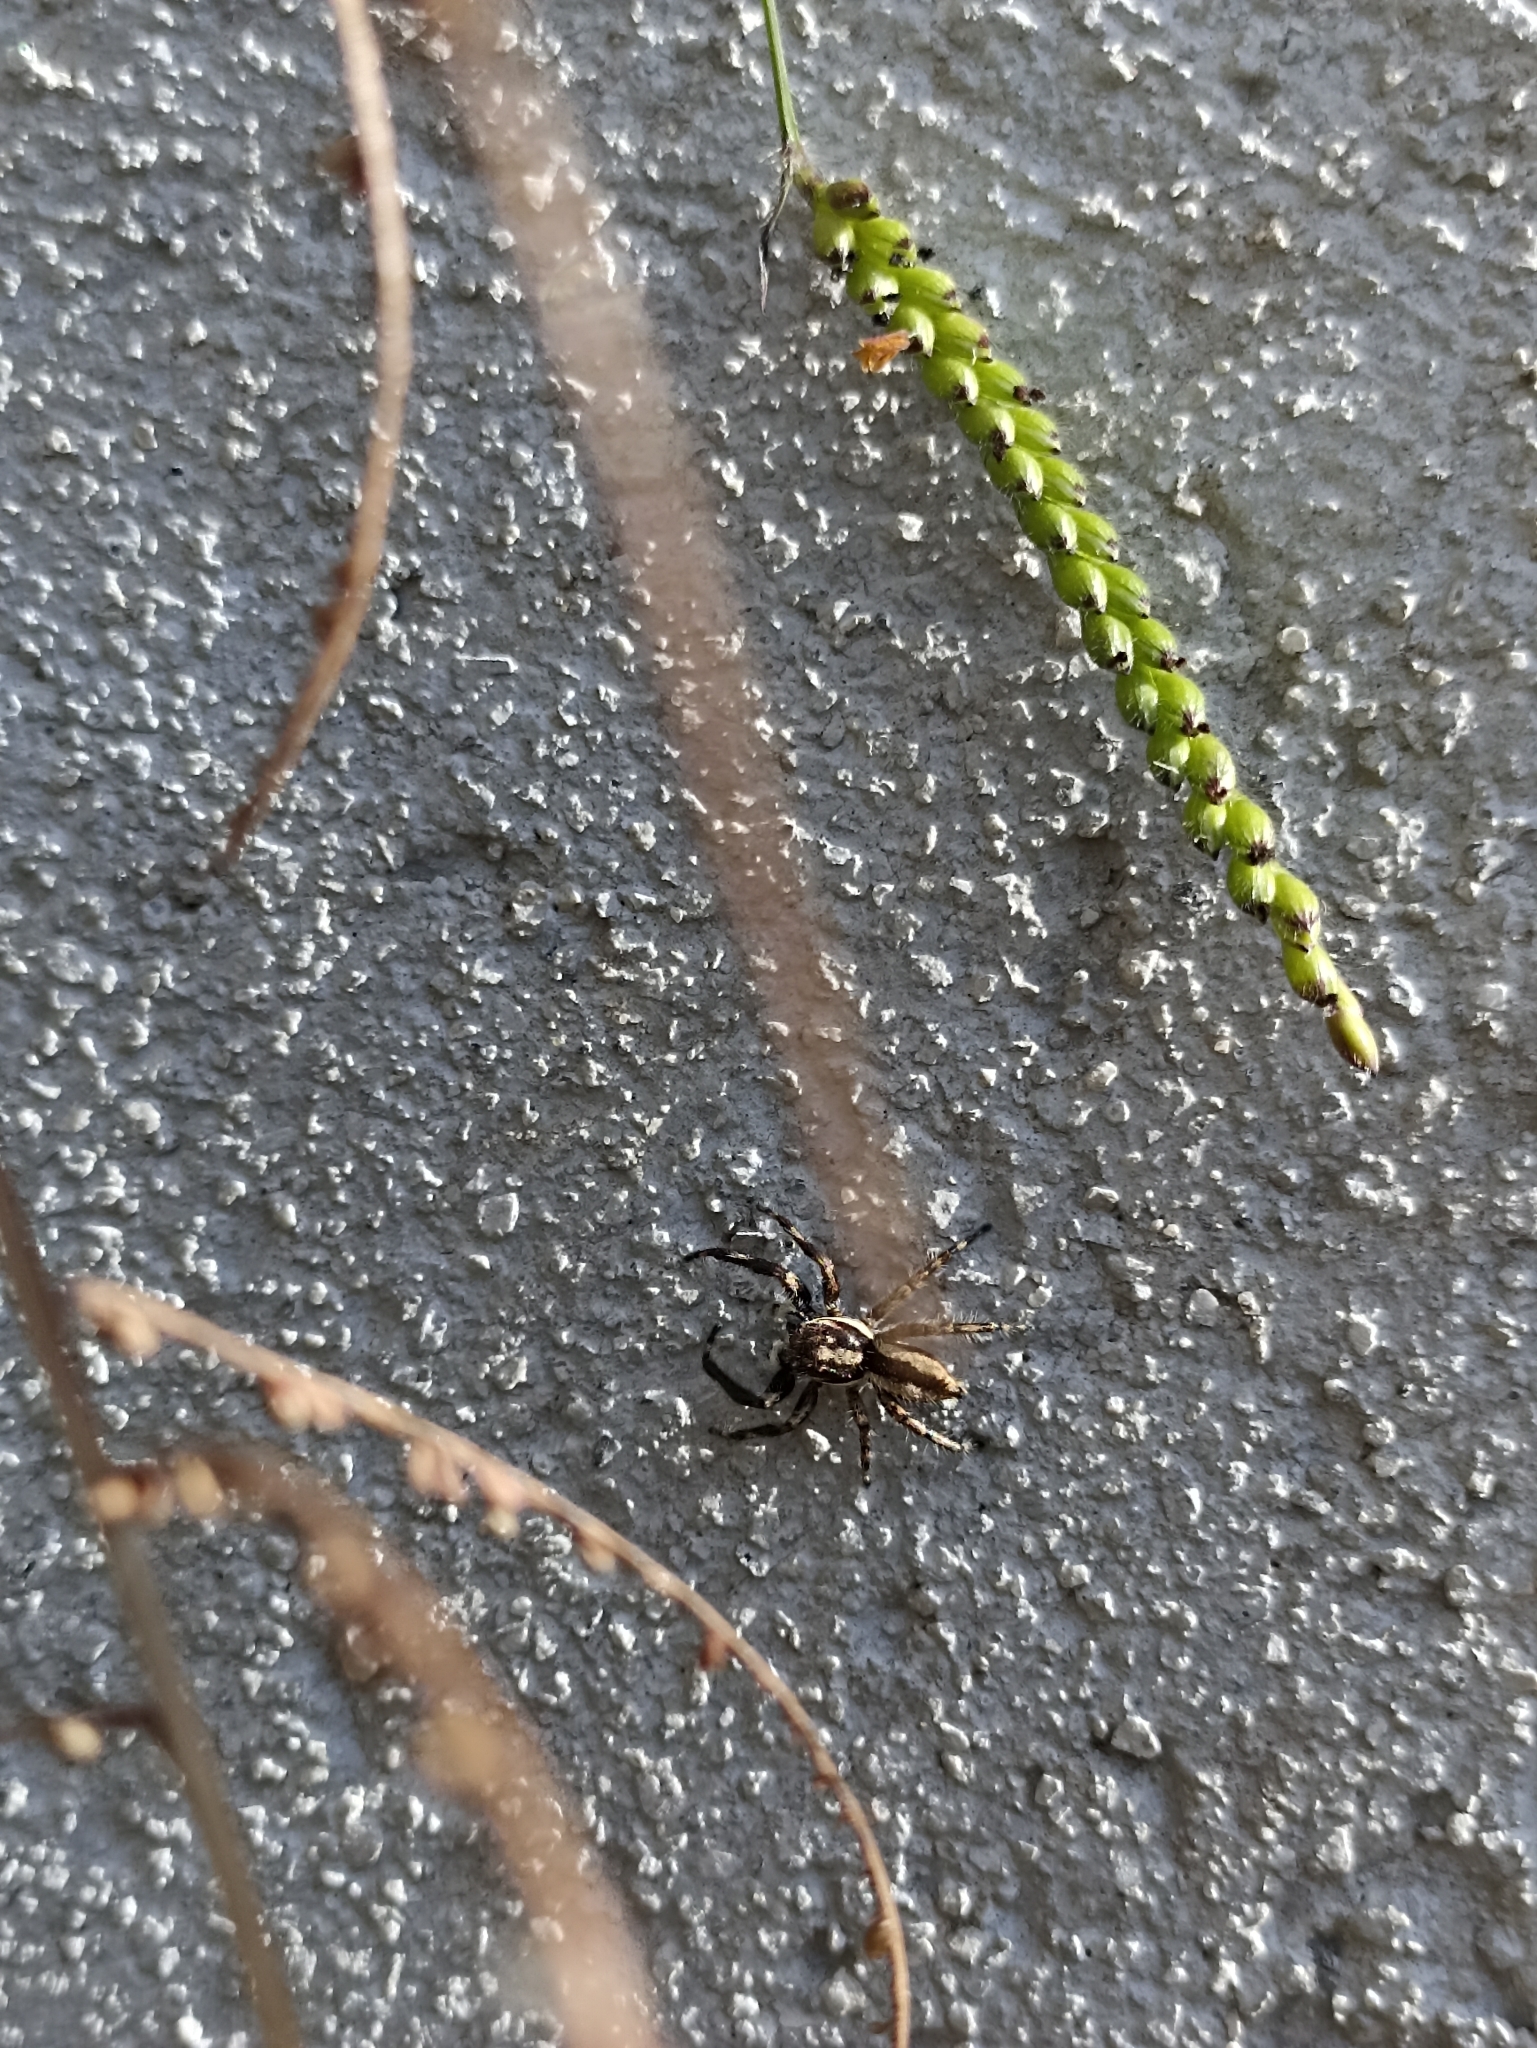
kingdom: Animalia
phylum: Arthropoda
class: Arachnida
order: Araneae
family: Salticidae
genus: Menemerus
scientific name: Menemerus bivittatus
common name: Gray wall jumper
